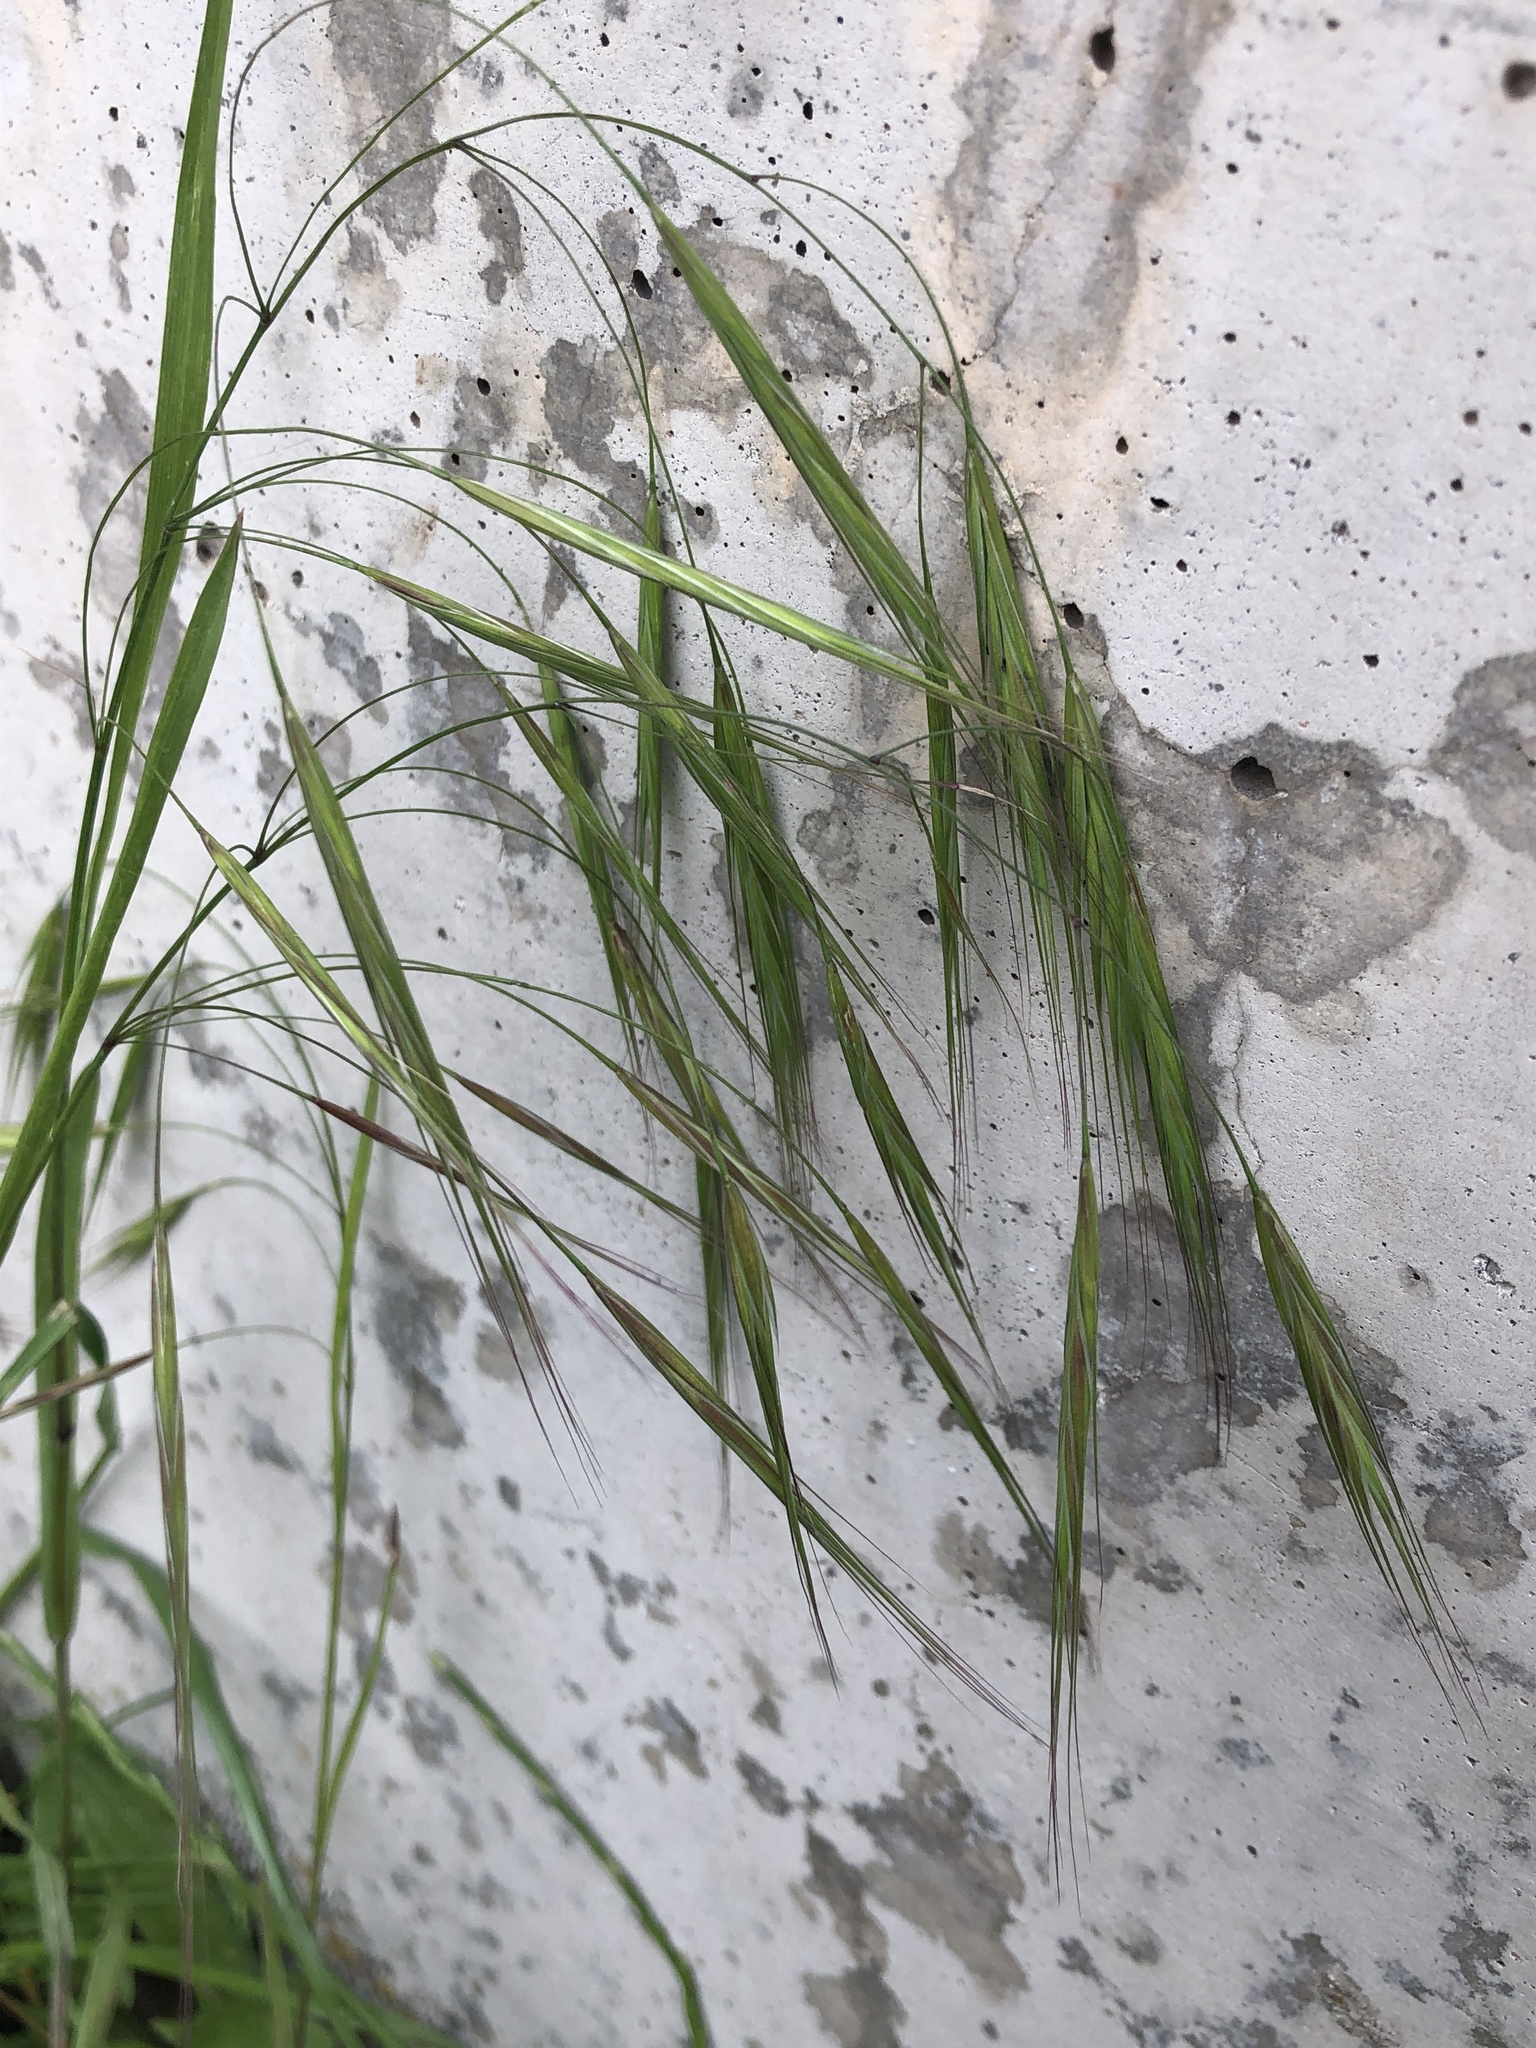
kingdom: Plantae
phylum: Tracheophyta
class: Liliopsida
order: Poales
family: Poaceae
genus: Bromus
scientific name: Bromus sterilis
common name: Poverty brome
